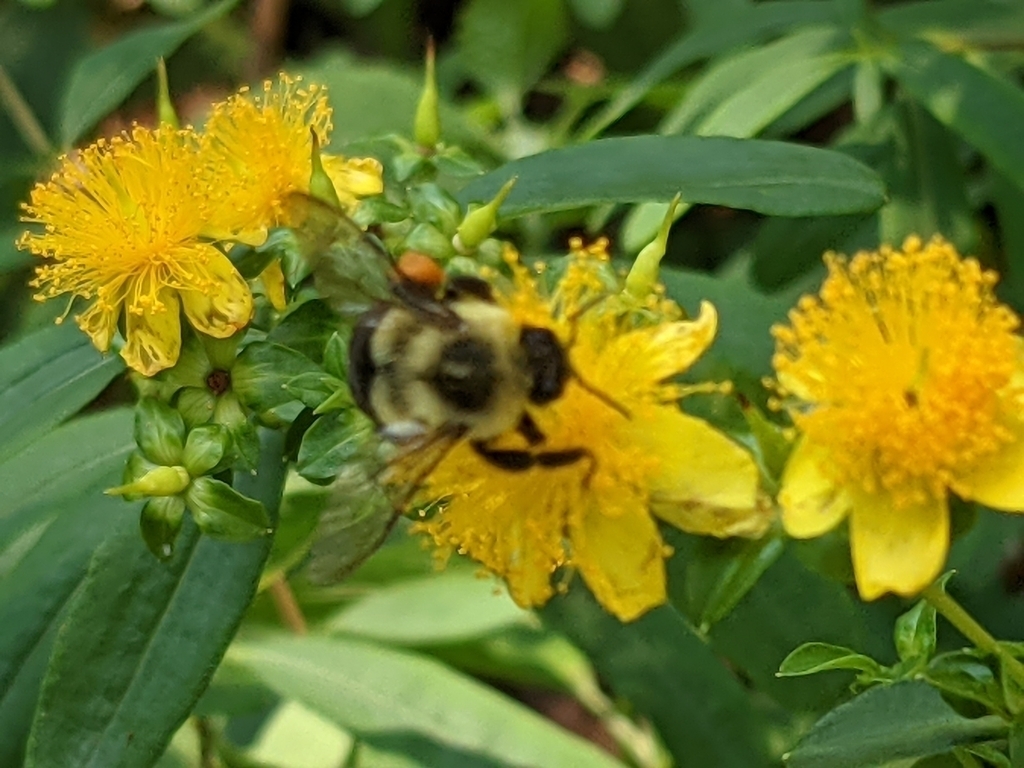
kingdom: Animalia
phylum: Arthropoda
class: Insecta
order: Hymenoptera
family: Apidae
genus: Bombus
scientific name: Bombus impatiens
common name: Common eastern bumble bee
